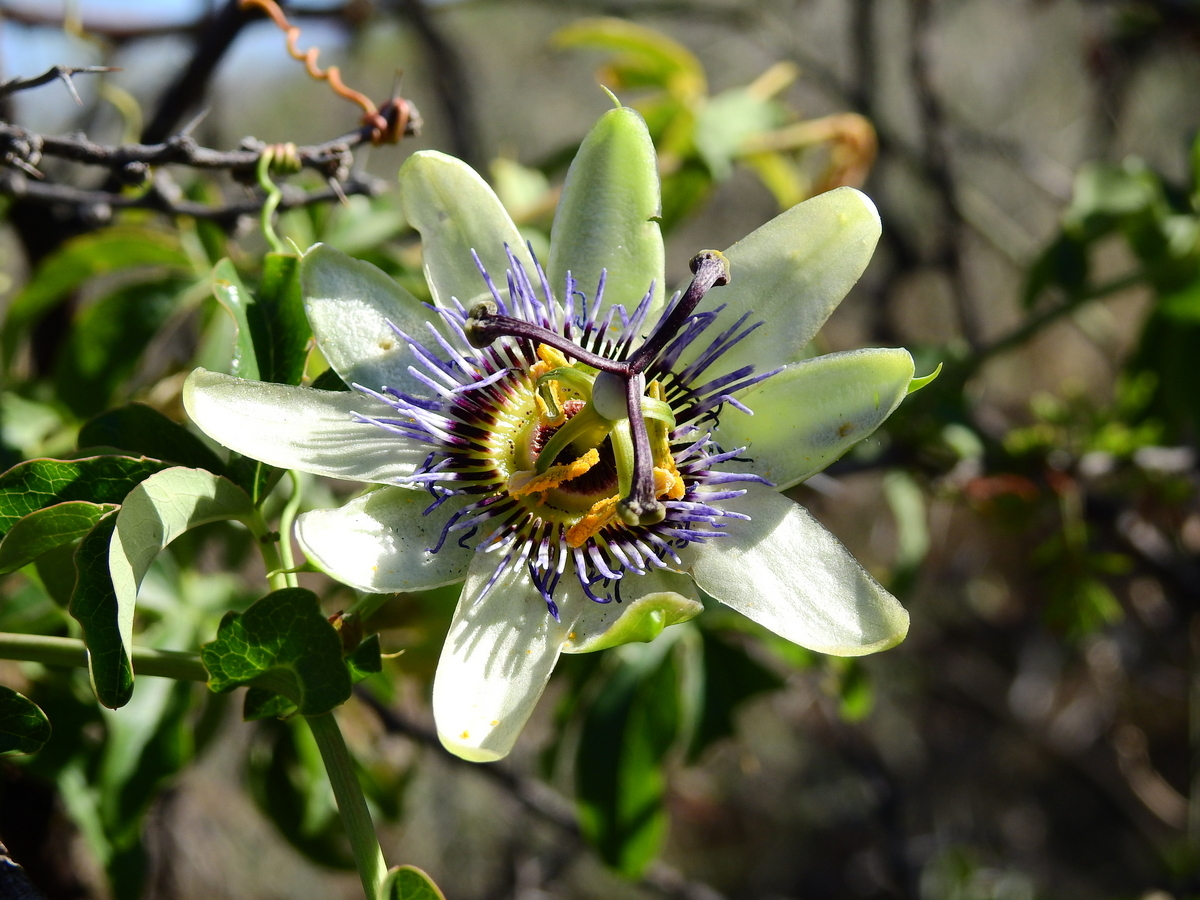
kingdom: Plantae
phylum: Tracheophyta
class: Magnoliopsida
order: Malpighiales
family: Passifloraceae
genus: Passiflora
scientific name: Passiflora caerulea
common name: Blue passionflower
